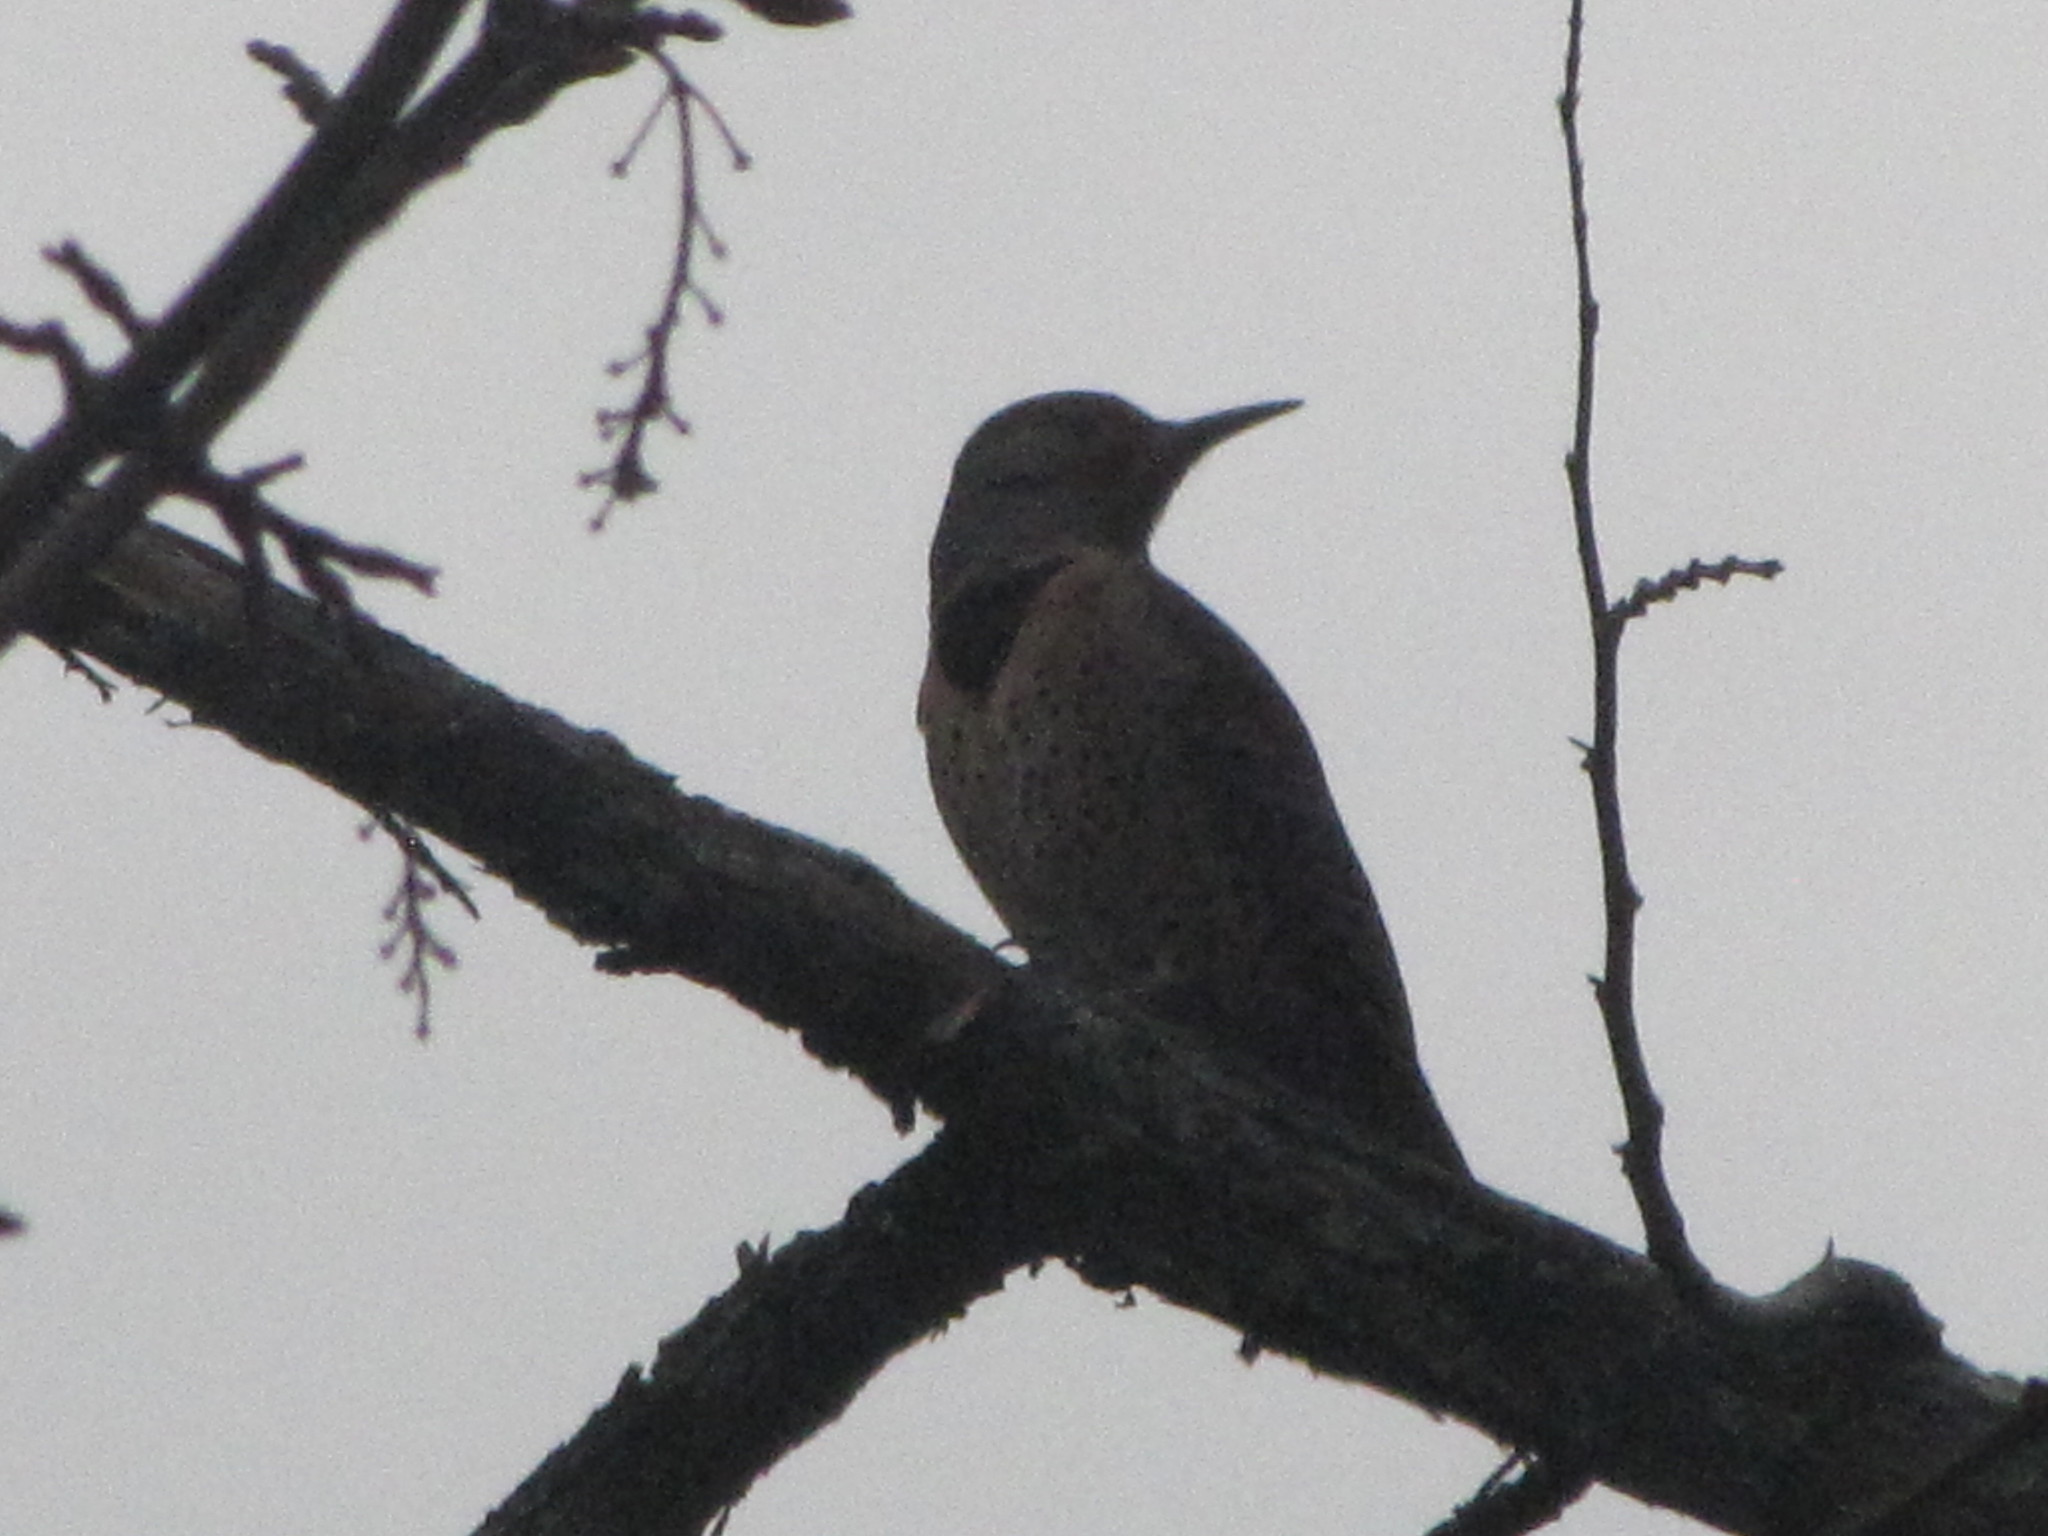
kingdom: Animalia
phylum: Chordata
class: Aves
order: Piciformes
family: Picidae
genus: Colaptes
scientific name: Colaptes auratus
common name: Northern flicker
